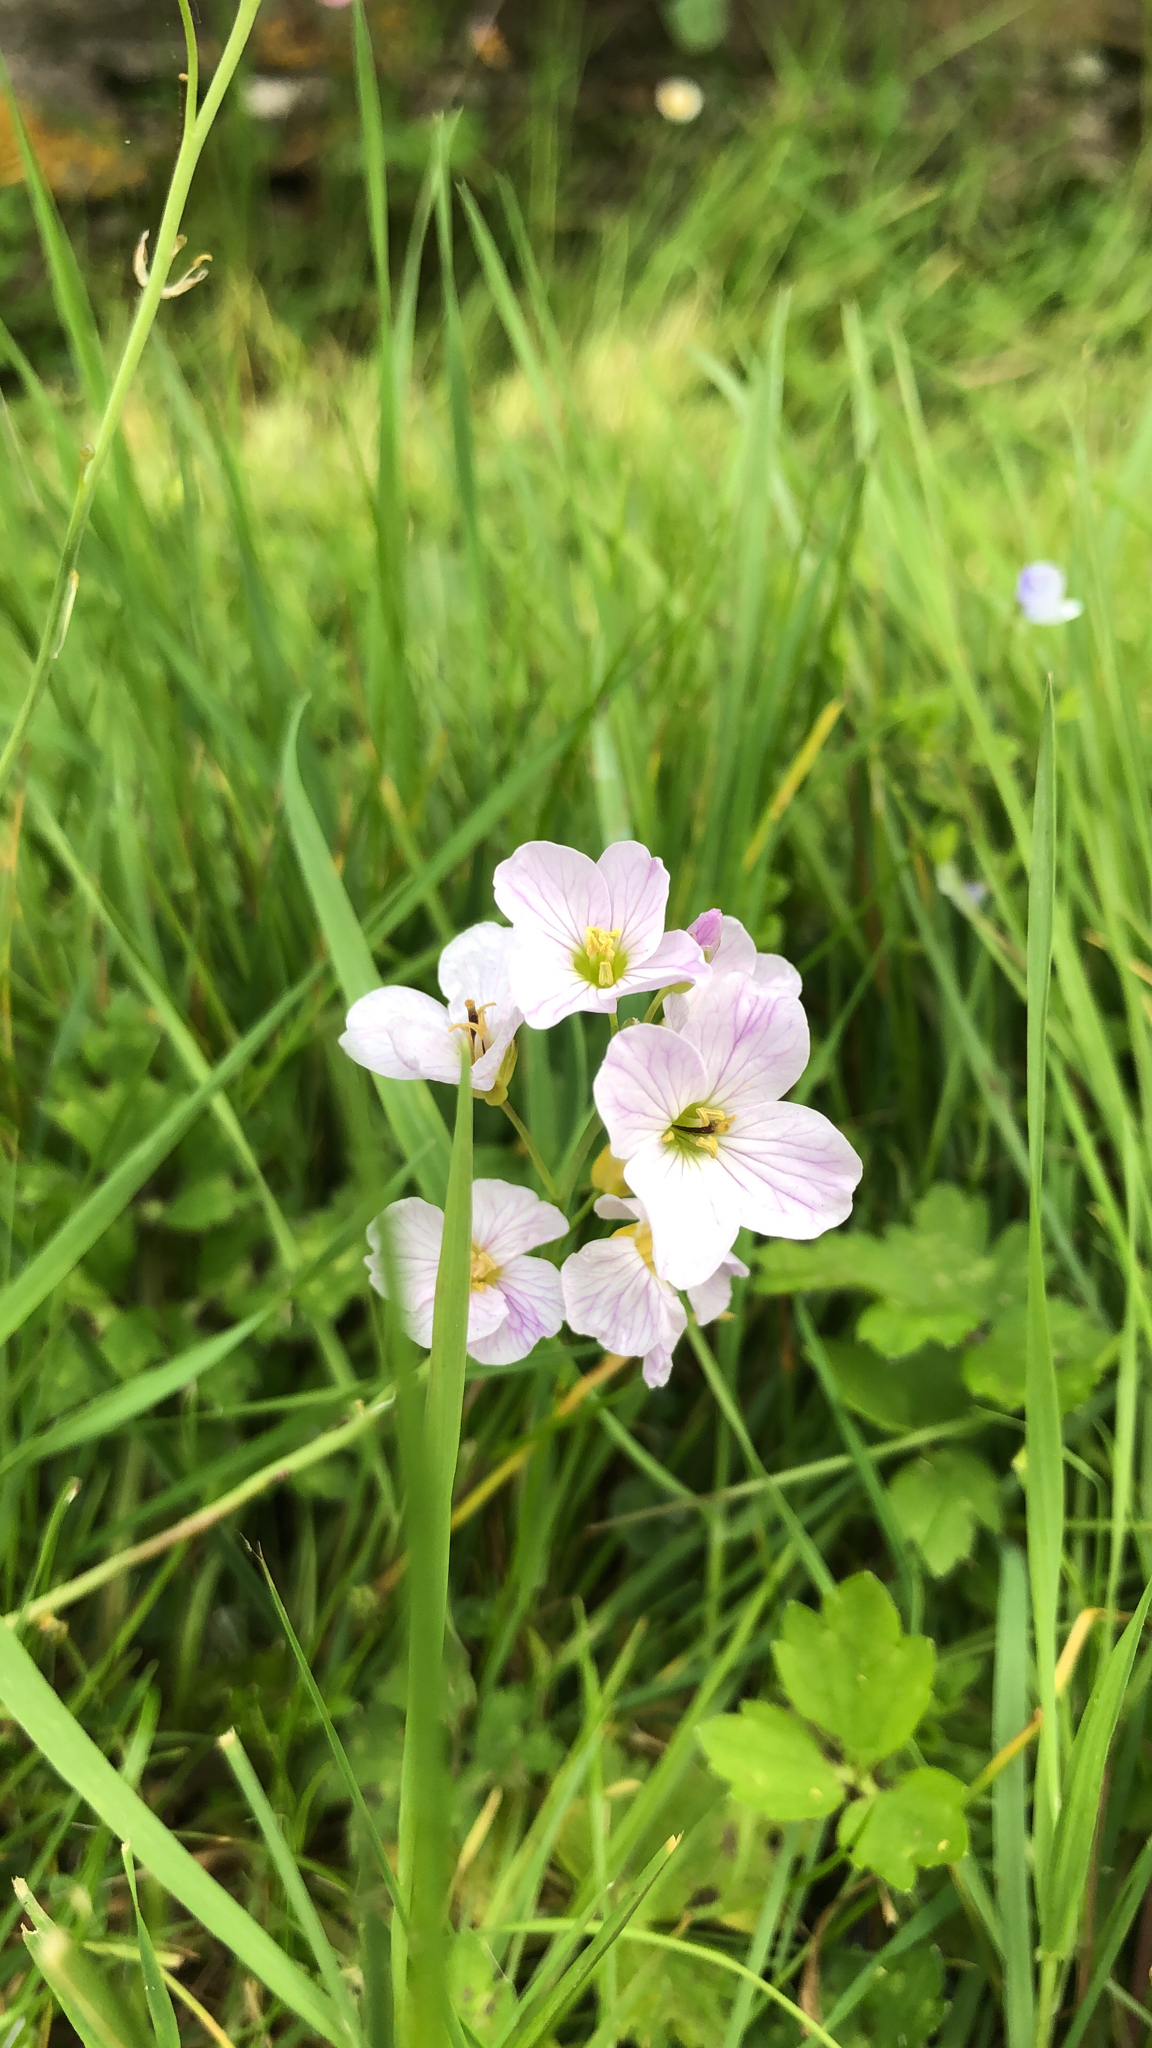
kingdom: Plantae
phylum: Tracheophyta
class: Magnoliopsida
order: Brassicales
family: Brassicaceae
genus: Cardamine
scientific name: Cardamine pratensis
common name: Cuckoo flower
